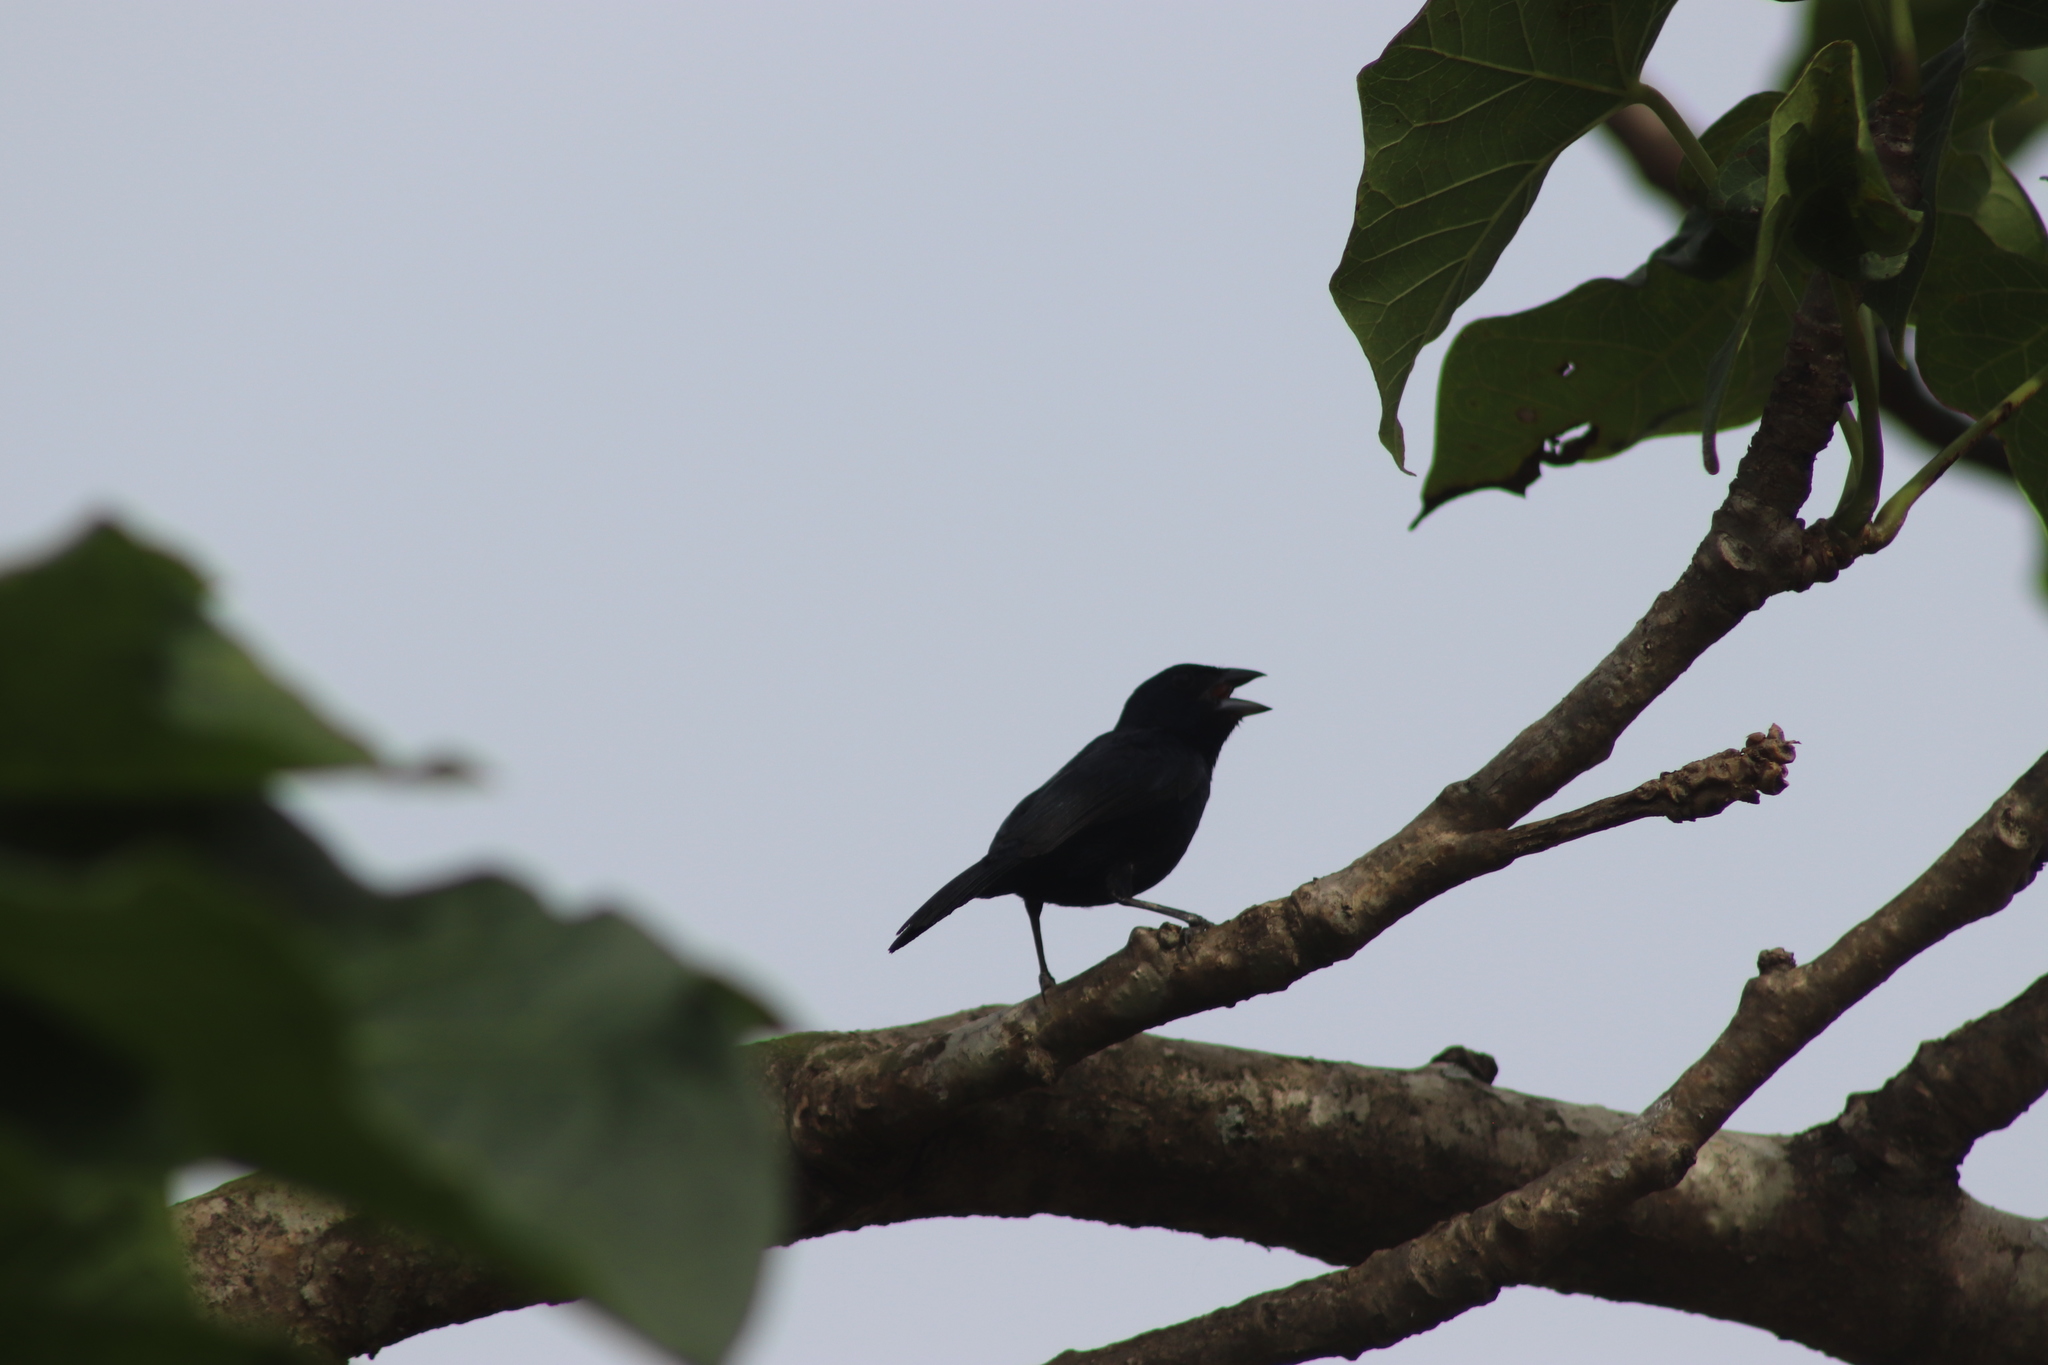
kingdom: Animalia
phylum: Chordata
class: Aves
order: Passeriformes
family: Thraupidae
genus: Volatinia
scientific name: Volatinia jacarina
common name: Blue-black grassquit
